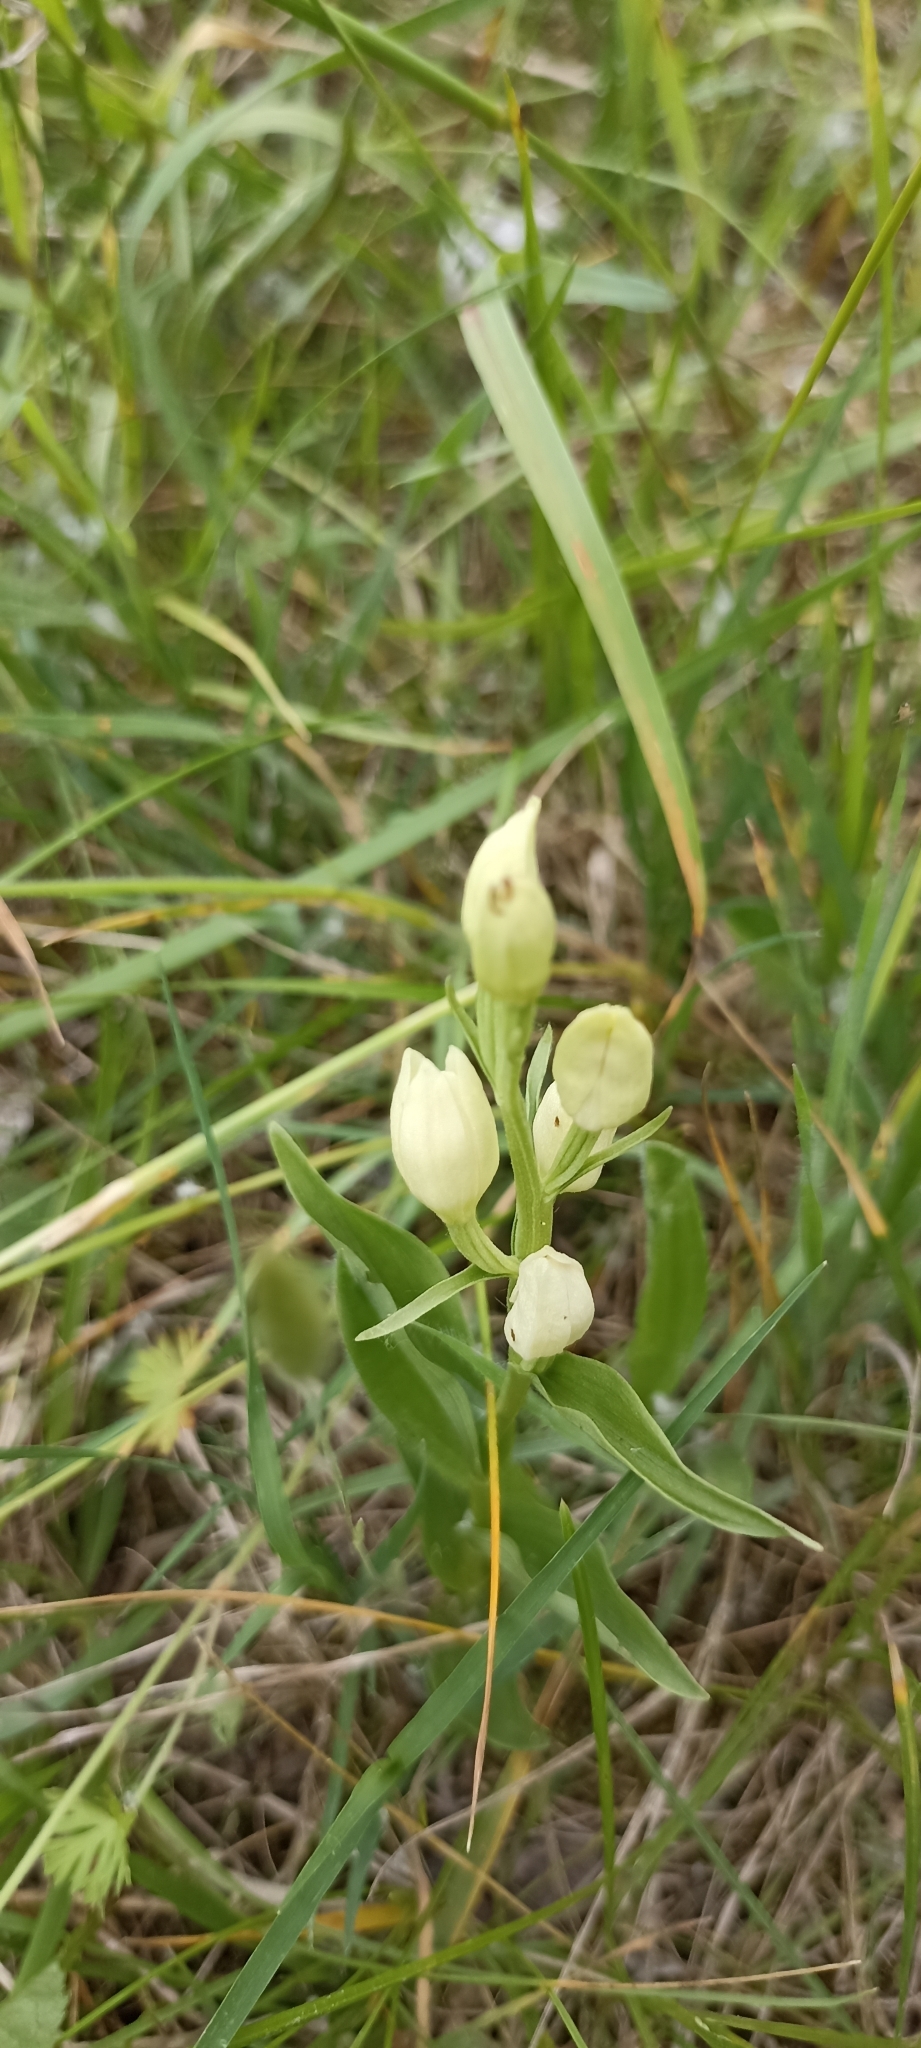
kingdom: Plantae
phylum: Tracheophyta
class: Liliopsida
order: Asparagales
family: Orchidaceae
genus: Cephalanthera
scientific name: Cephalanthera damasonium
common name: White helleborine
